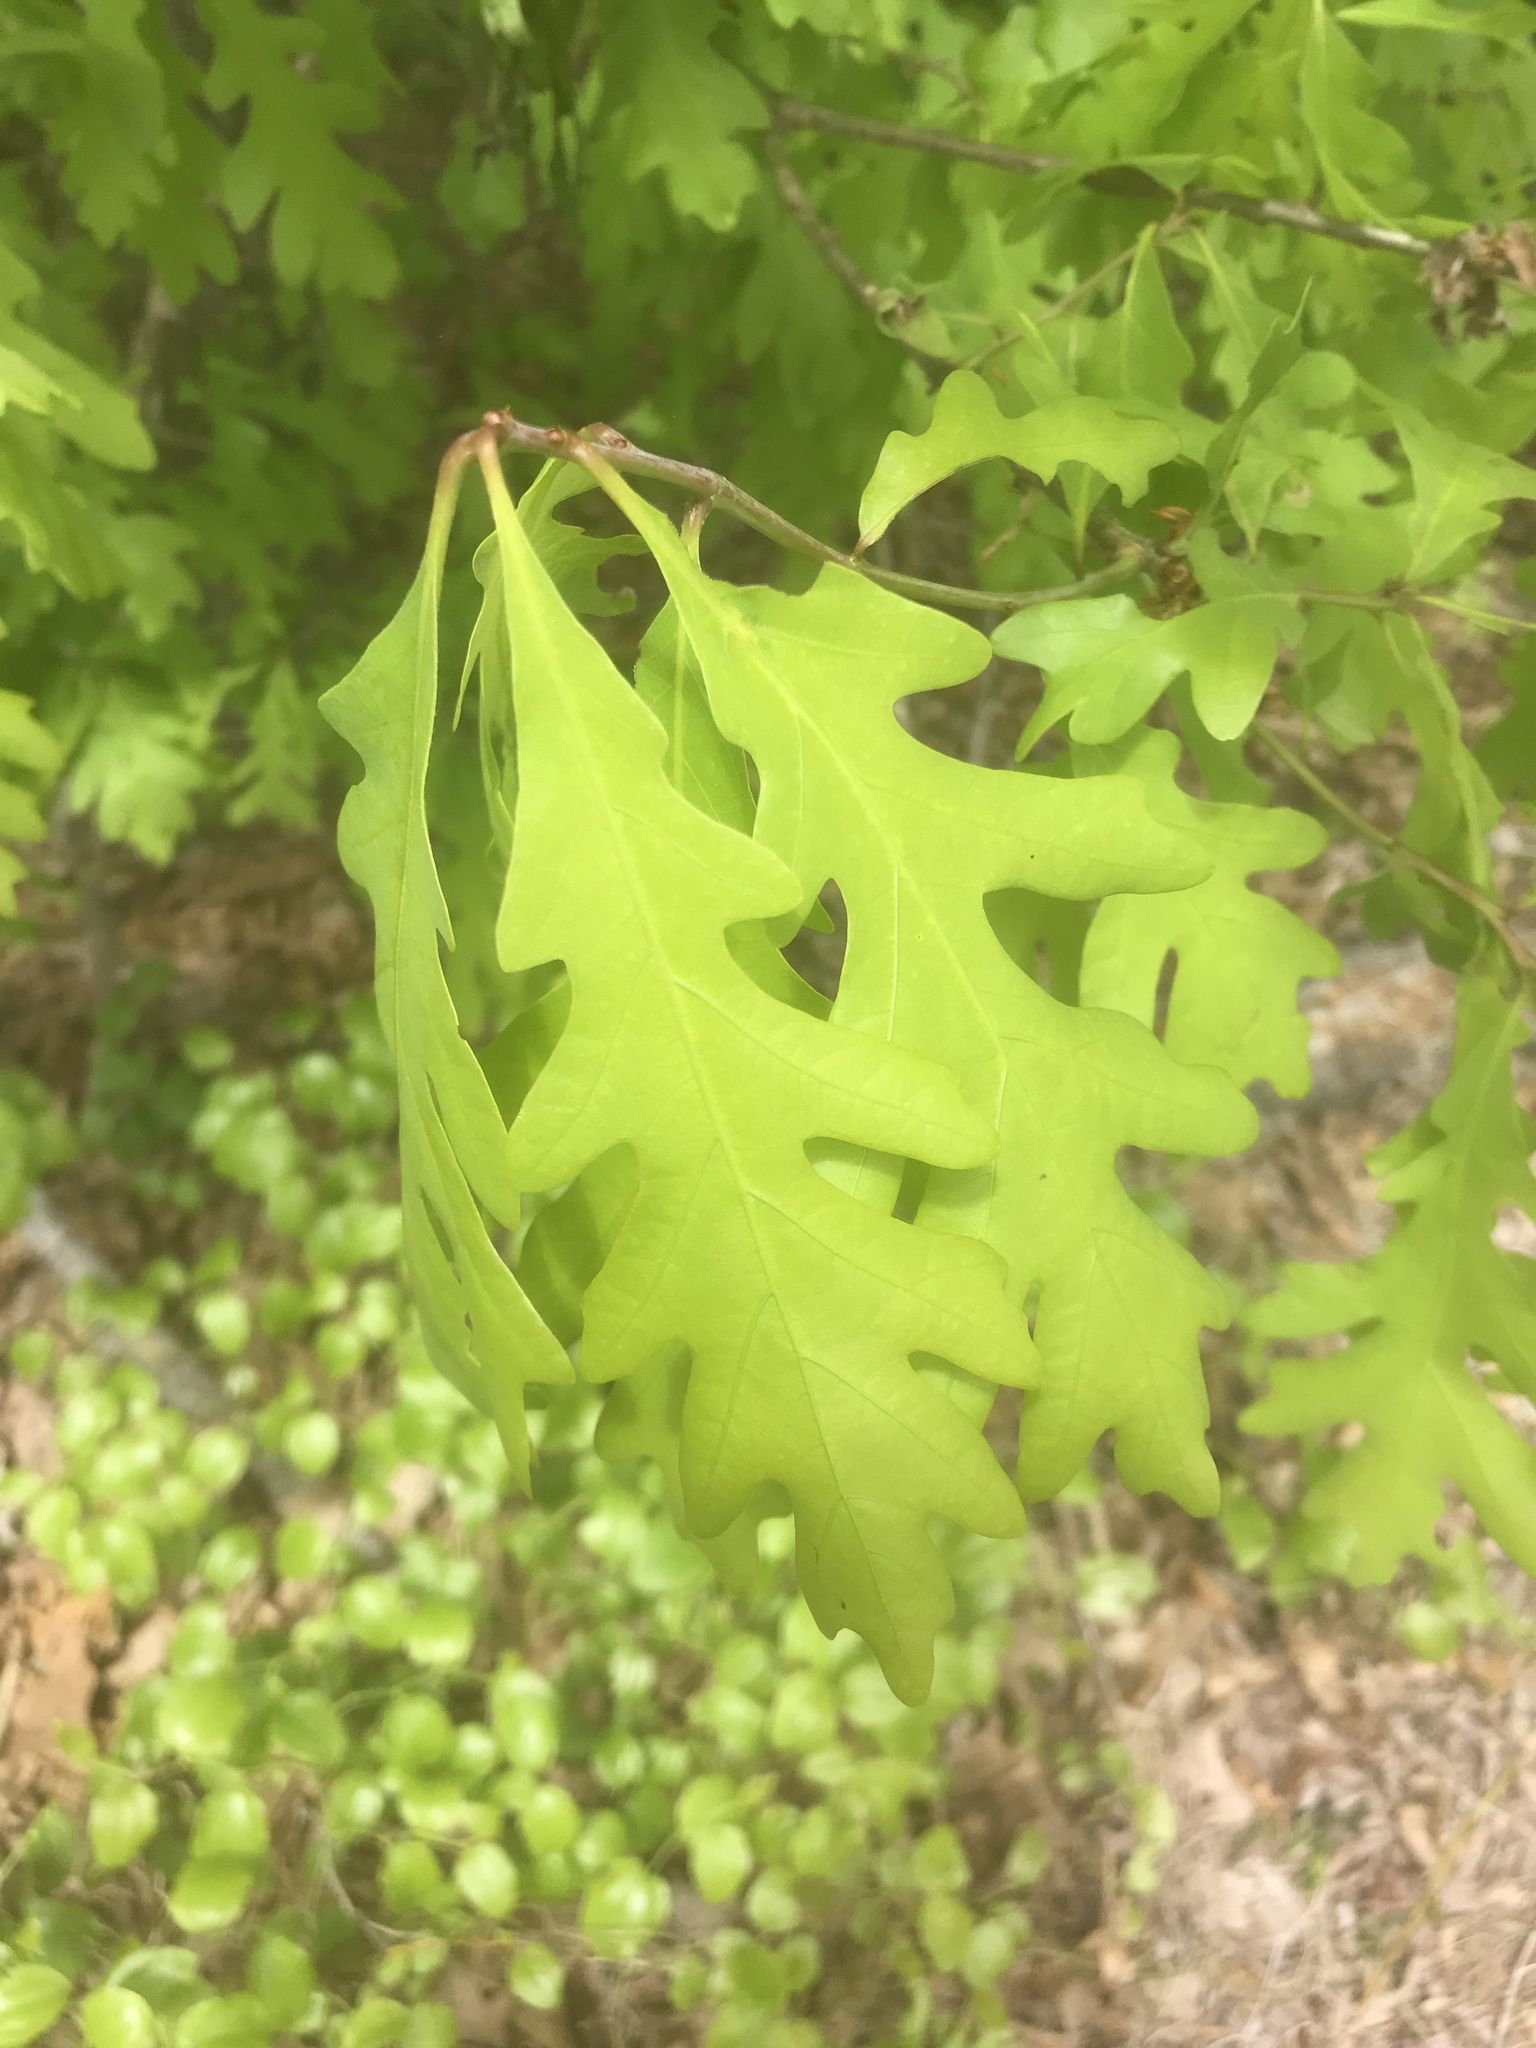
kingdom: Plantae
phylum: Tracheophyta
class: Magnoliopsida
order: Fagales
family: Fagaceae
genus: Quercus
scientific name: Quercus alba
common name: White oak
